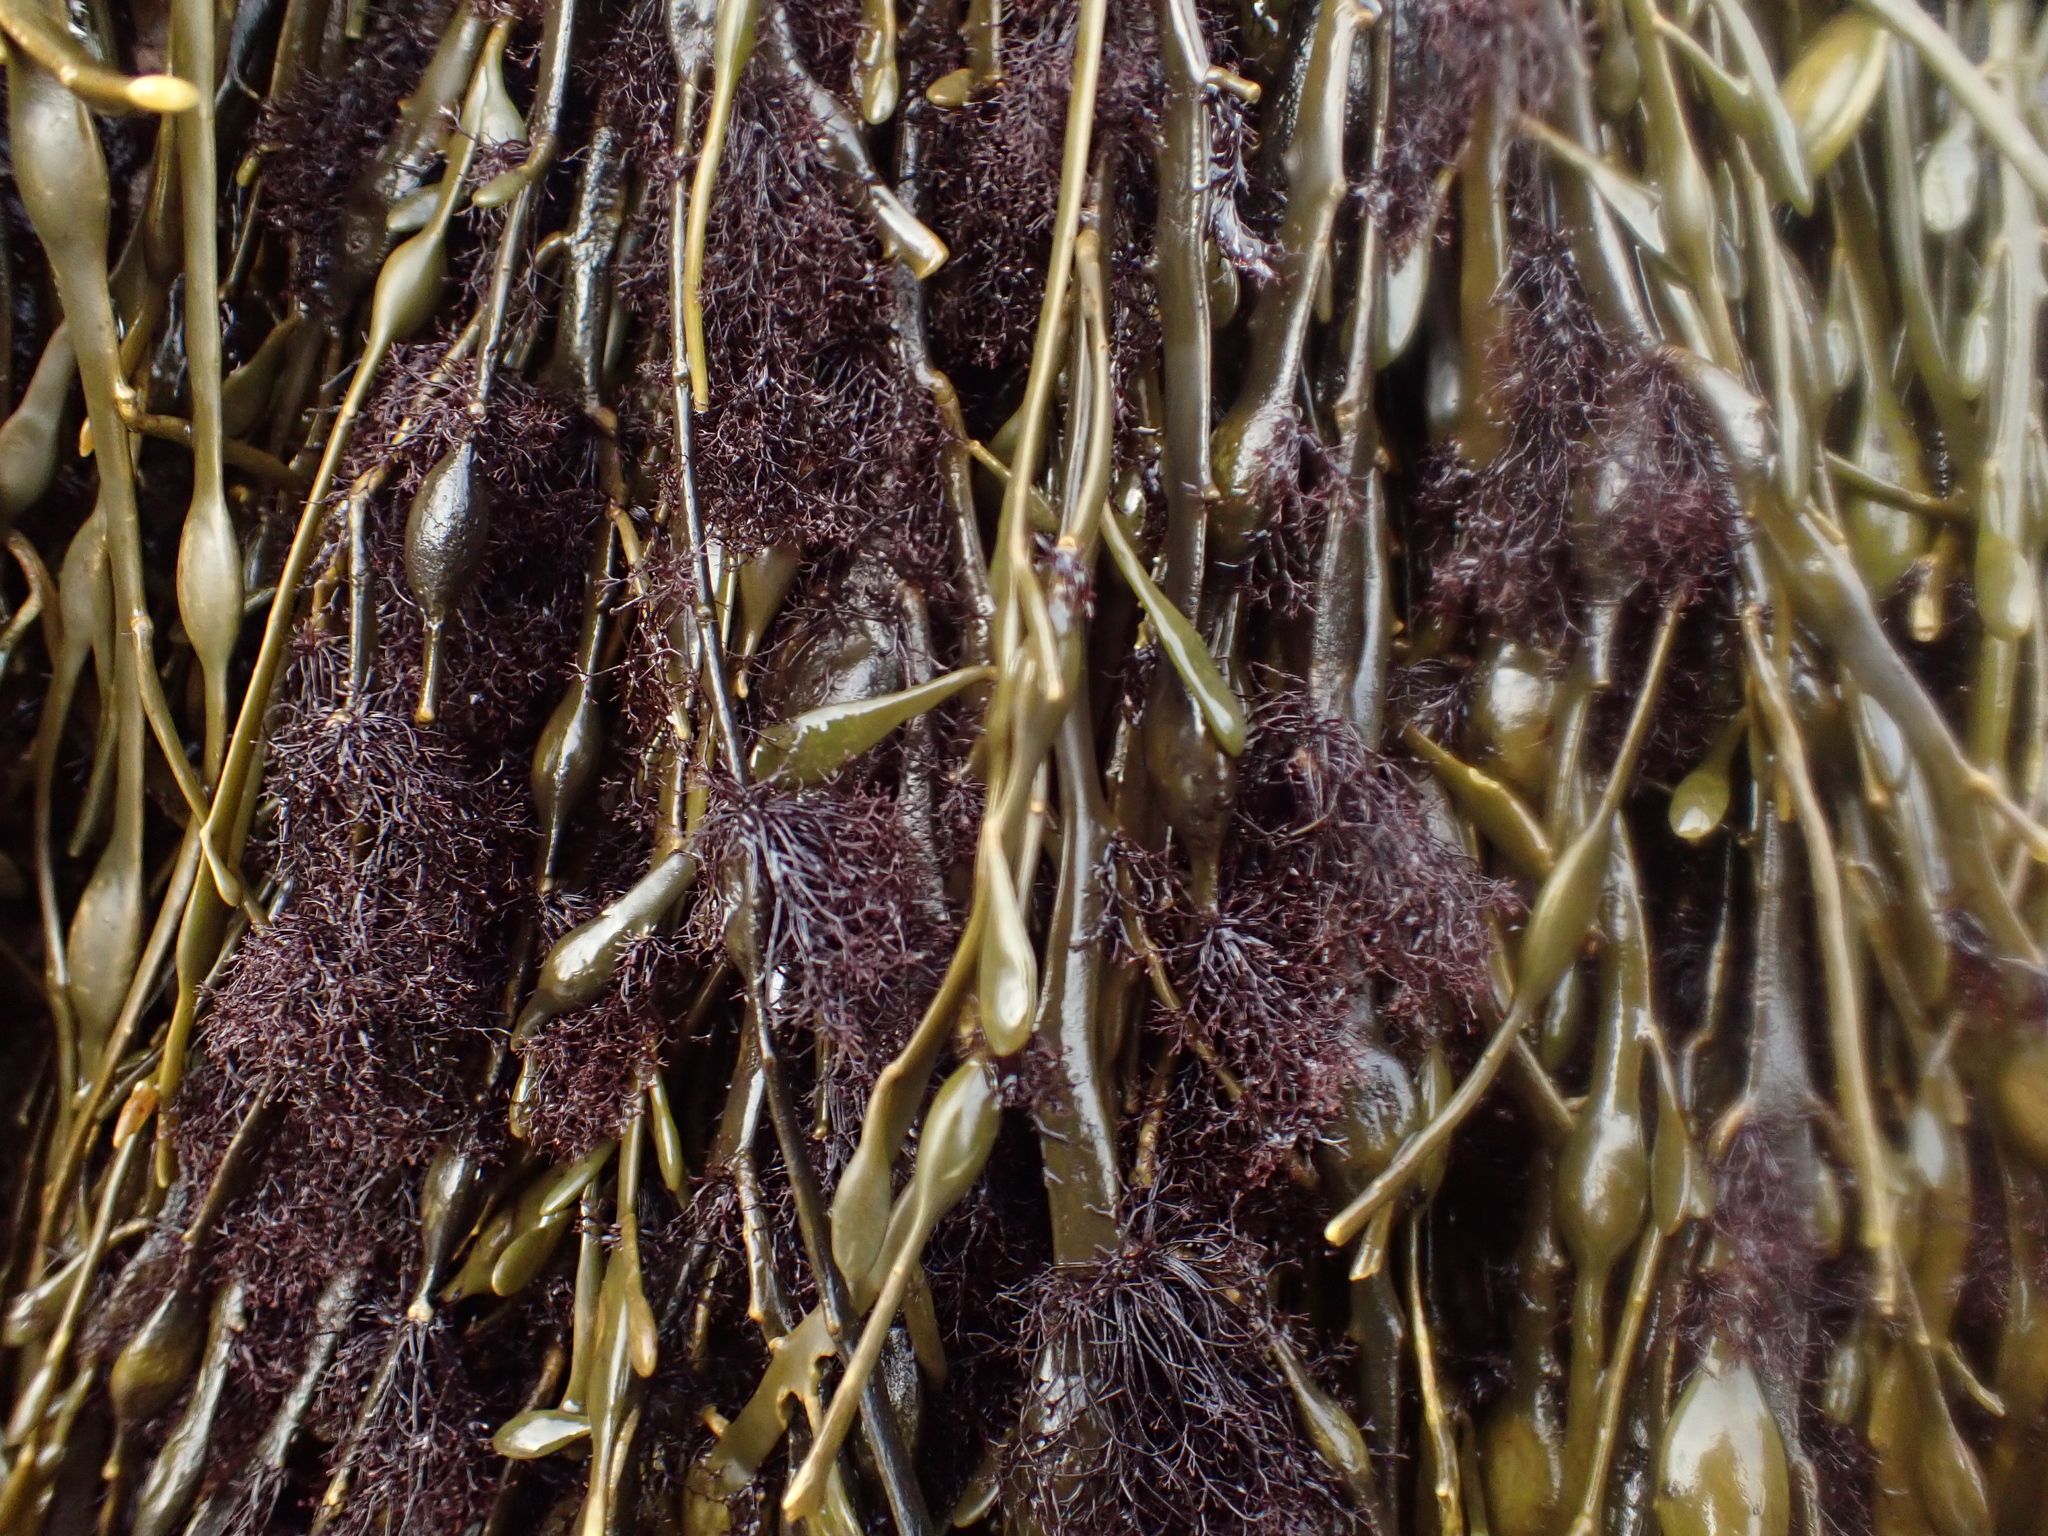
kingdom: Plantae
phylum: Rhodophyta
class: Florideophyceae
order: Ceramiales
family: Rhodomelaceae
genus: Vertebrata
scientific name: Vertebrata lanosa
